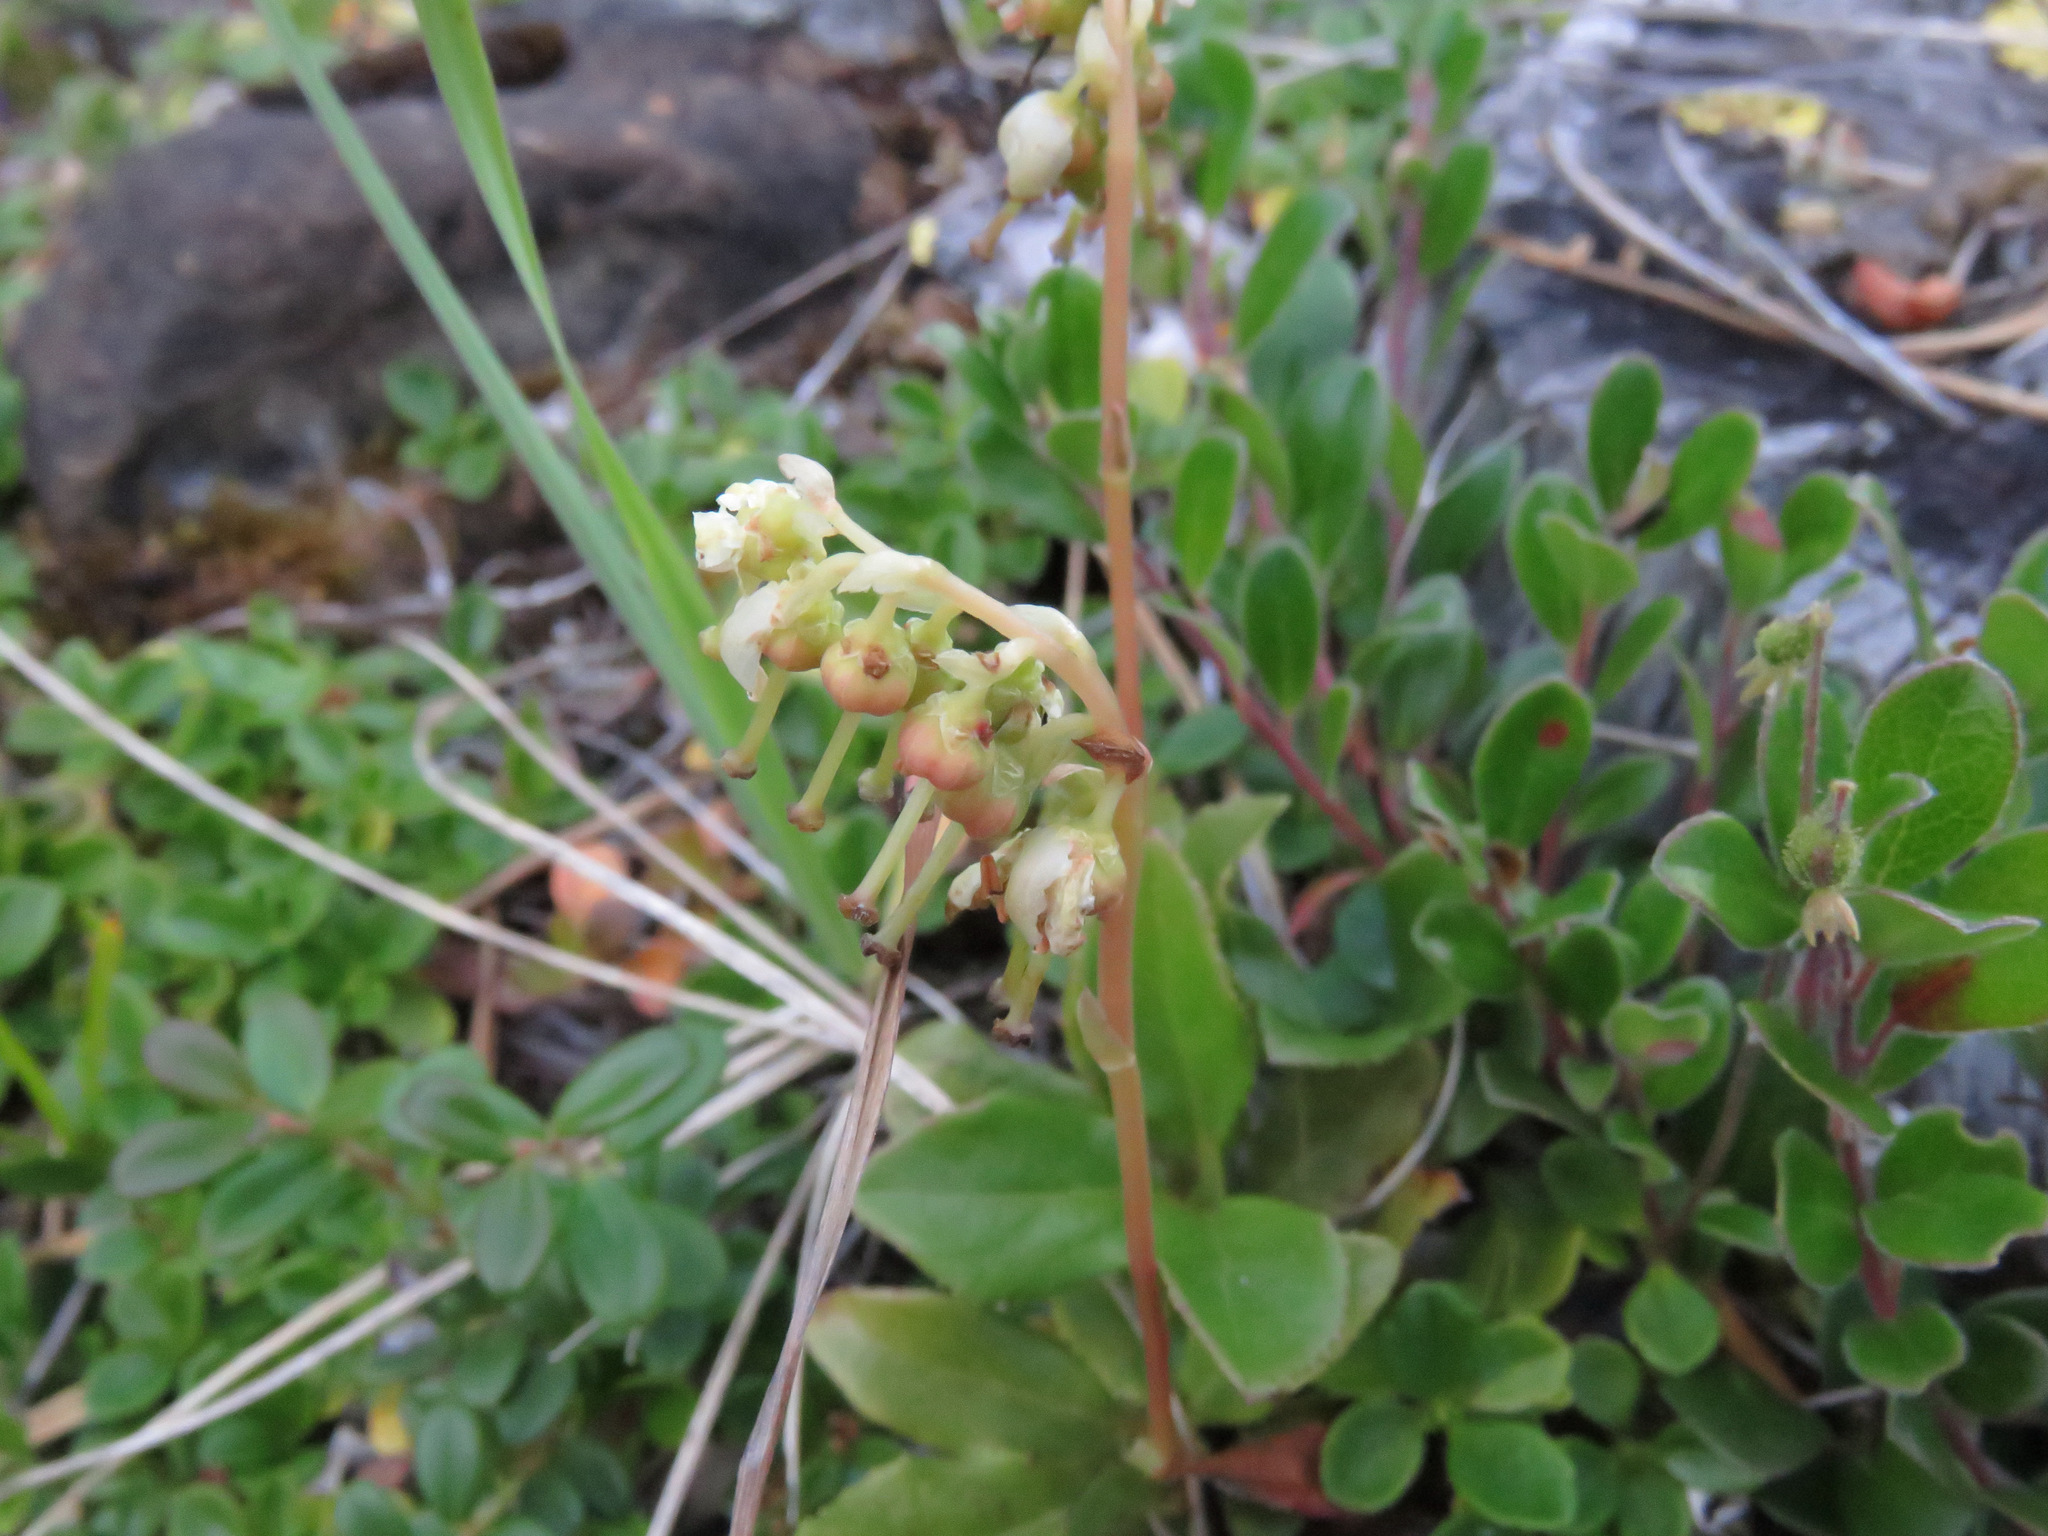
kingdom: Plantae
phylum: Tracheophyta
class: Magnoliopsida
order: Ericales
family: Ericaceae
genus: Orthilia
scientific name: Orthilia secunda
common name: One-sided orthilia
